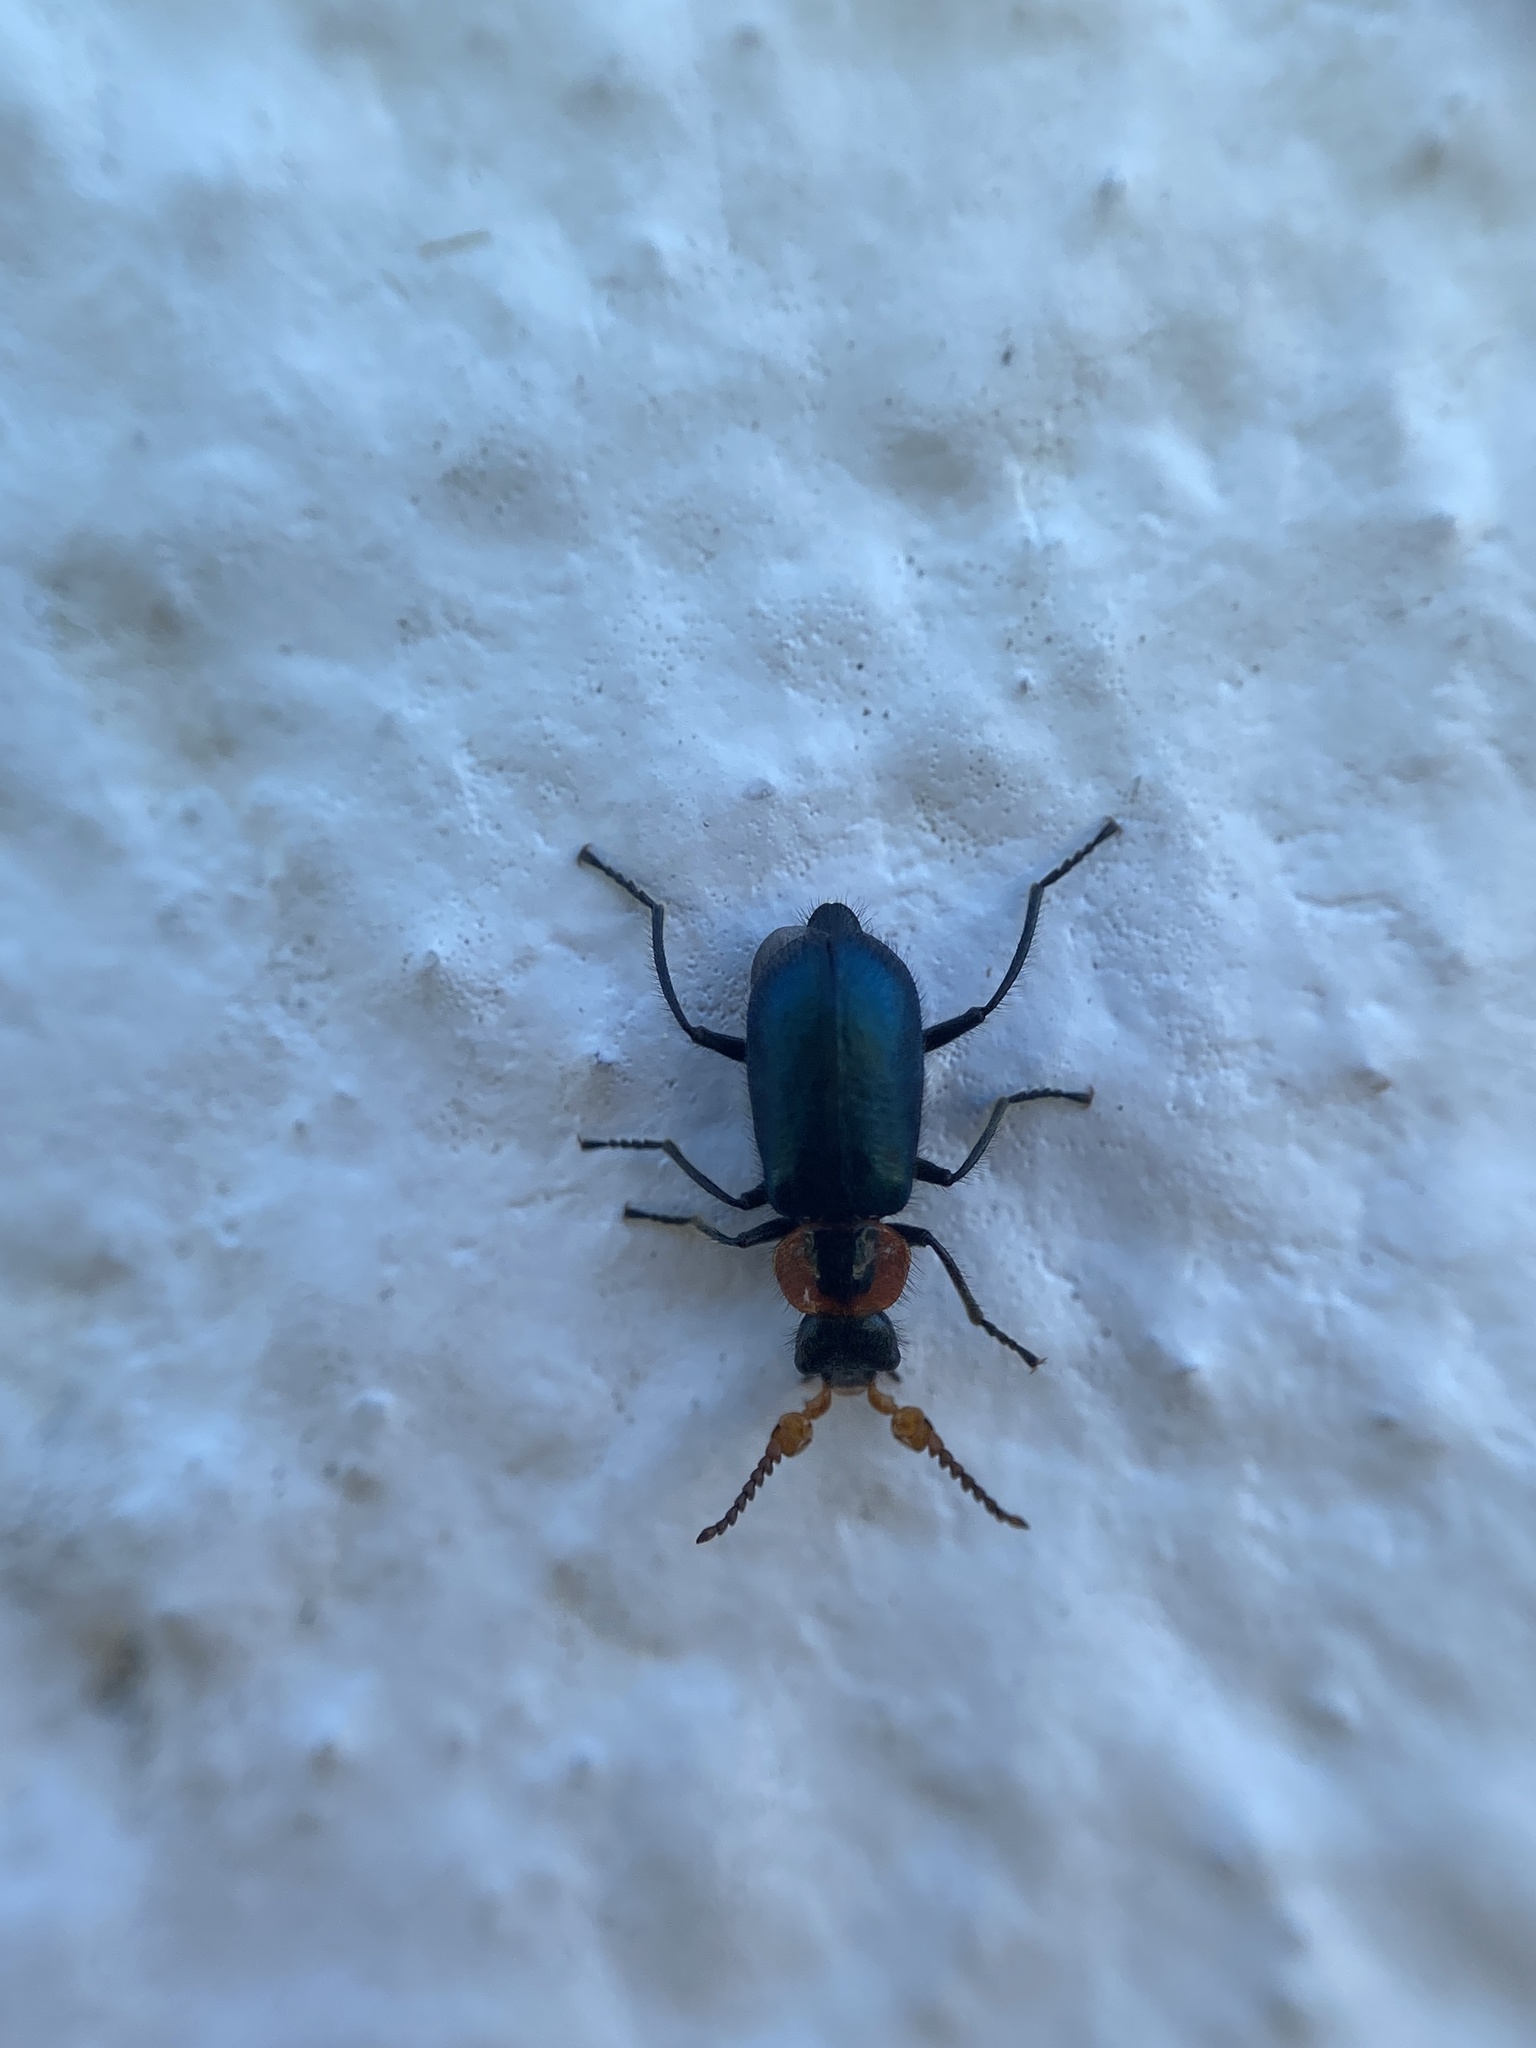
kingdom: Animalia
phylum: Arthropoda
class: Insecta
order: Coleoptera
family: Melyridae
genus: Collops
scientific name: Collops nigriceps
